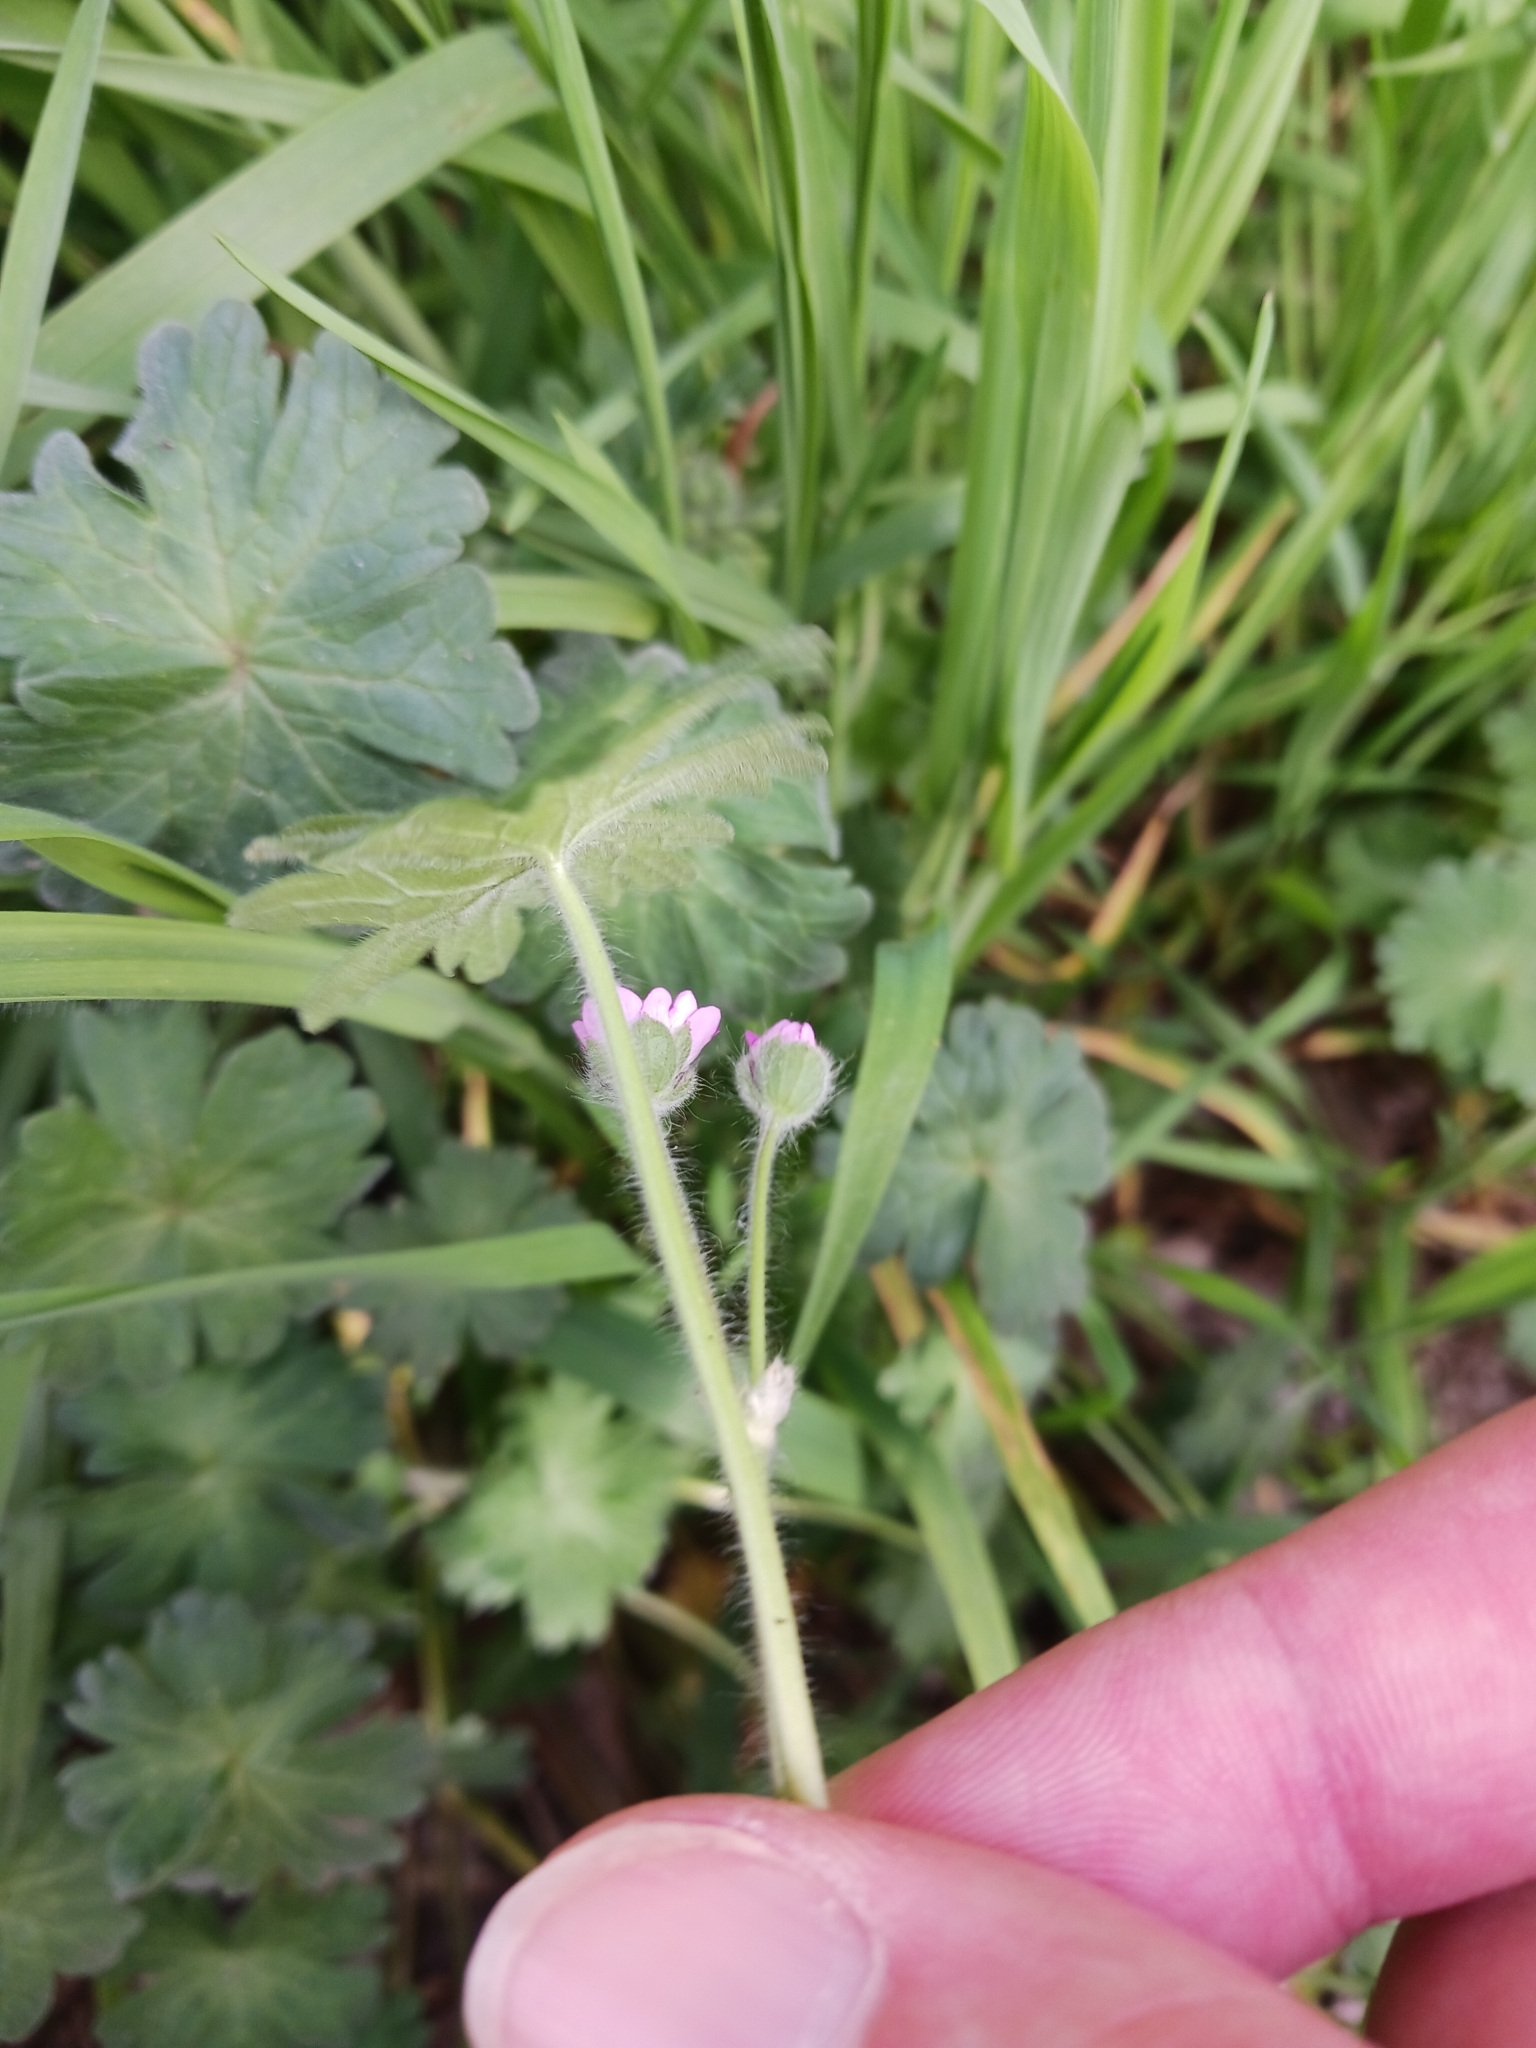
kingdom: Plantae
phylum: Tracheophyta
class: Magnoliopsida
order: Geraniales
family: Geraniaceae
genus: Geranium
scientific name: Geranium pyrenaicum
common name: Hedgerow crane's-bill
